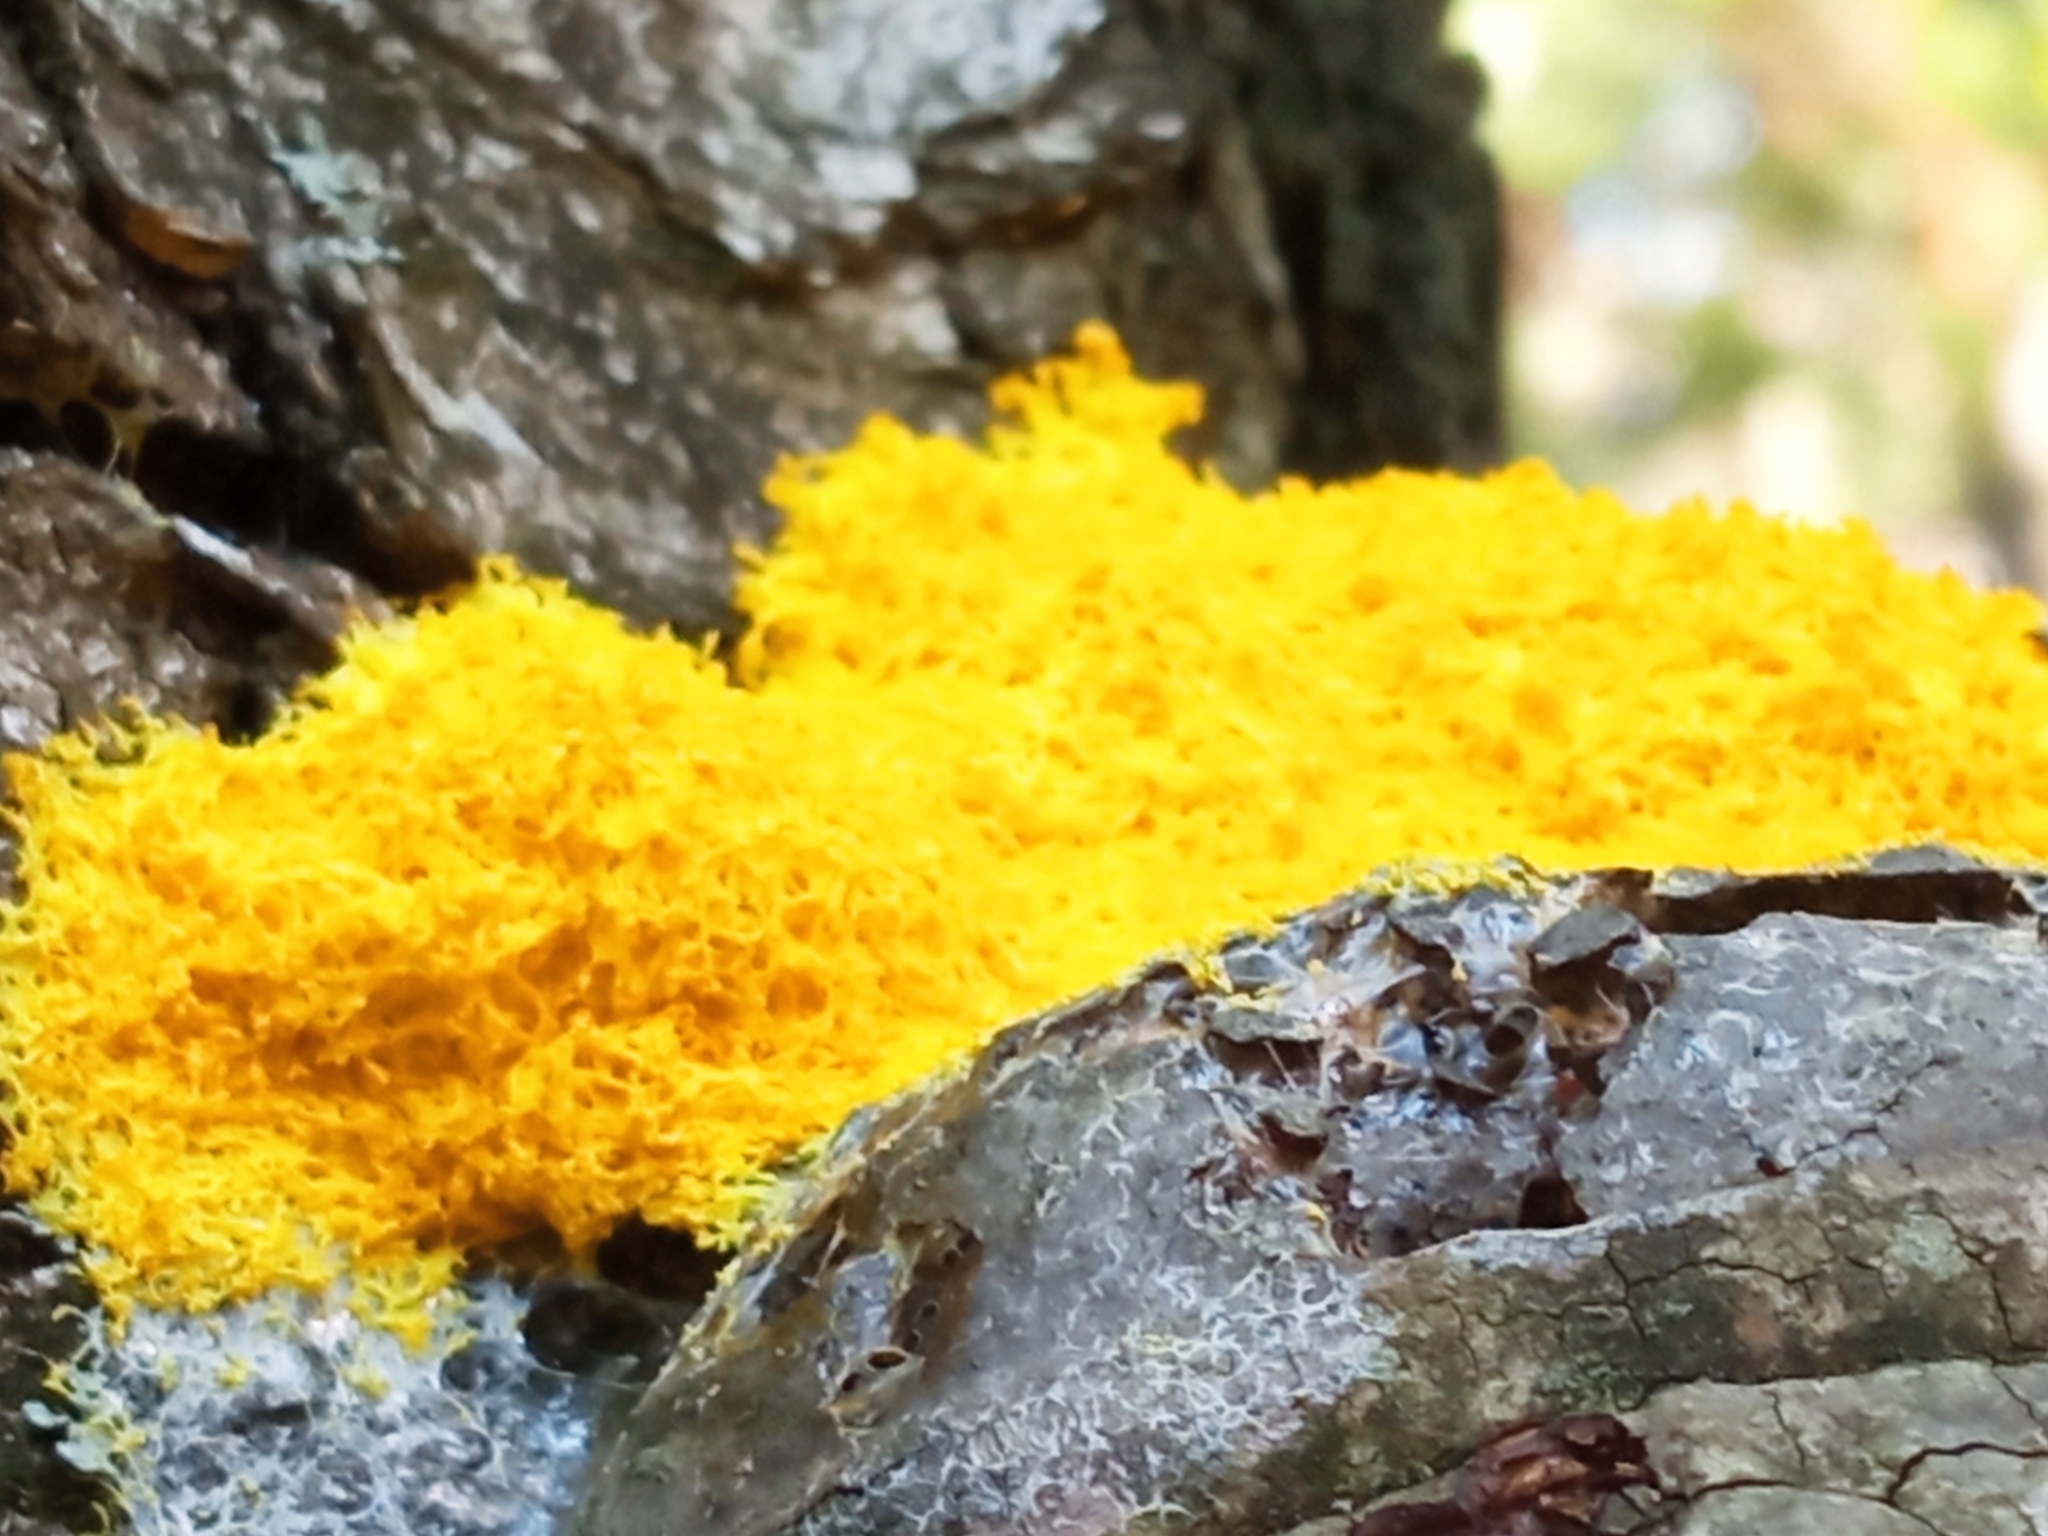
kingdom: Protozoa
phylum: Mycetozoa
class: Myxomycetes
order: Physarales
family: Physaraceae
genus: Fuligo
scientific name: Fuligo septica
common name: Dog vomit slime mold
